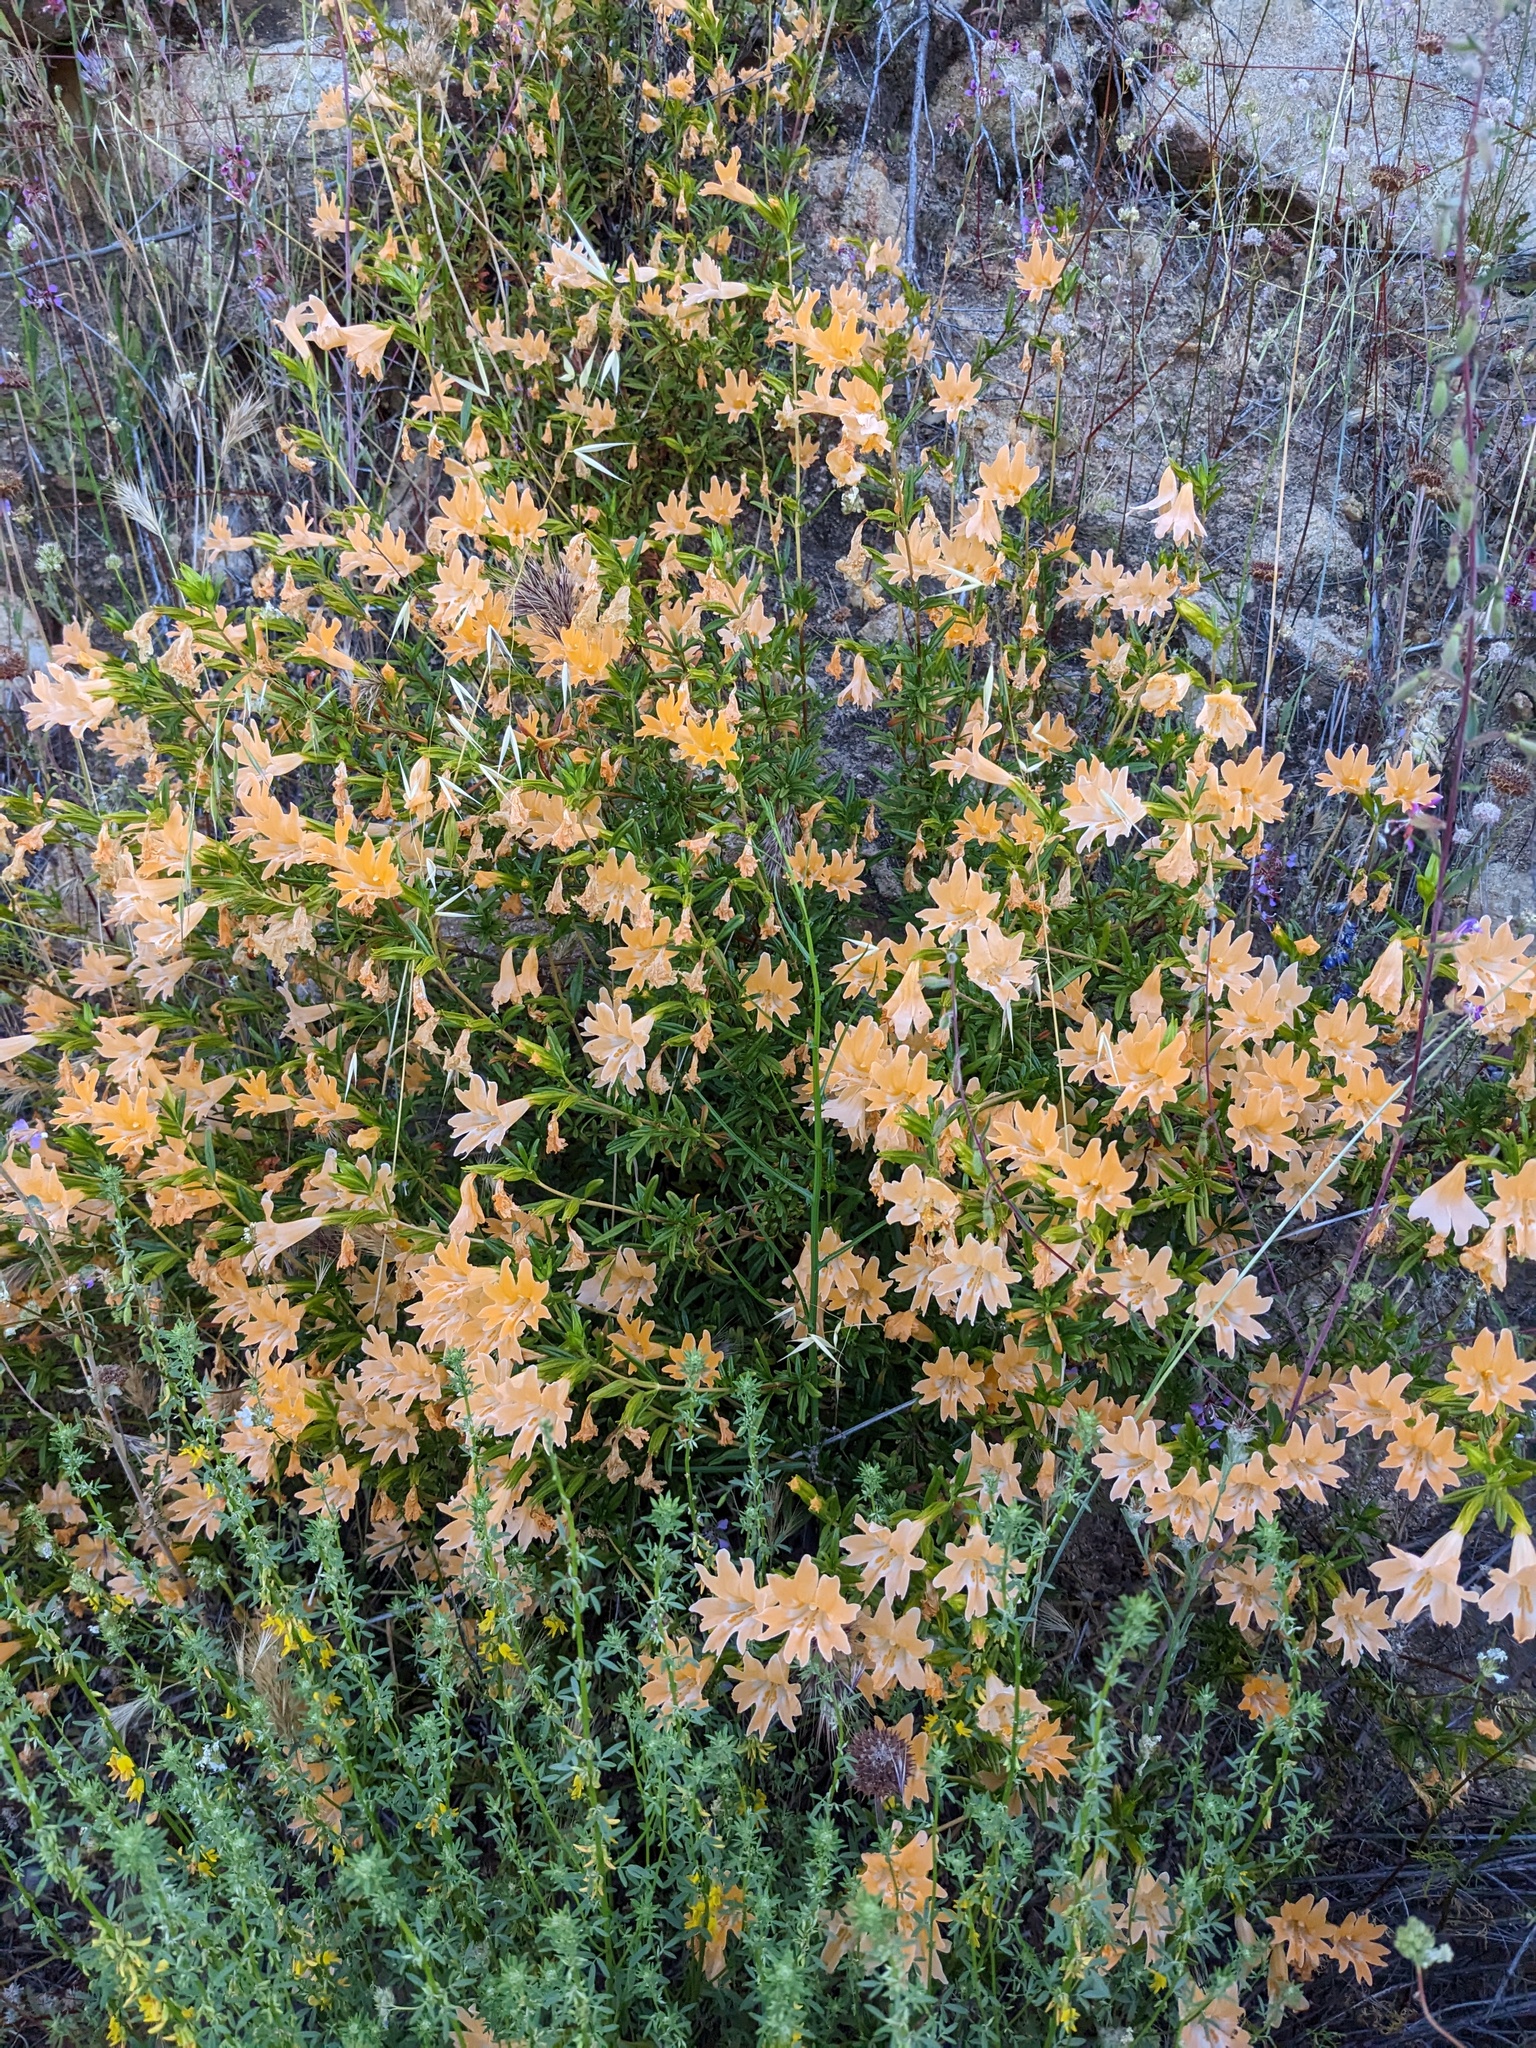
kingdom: Plantae
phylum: Tracheophyta
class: Magnoliopsida
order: Lamiales
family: Phrymaceae
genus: Diplacus
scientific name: Diplacus linearis
